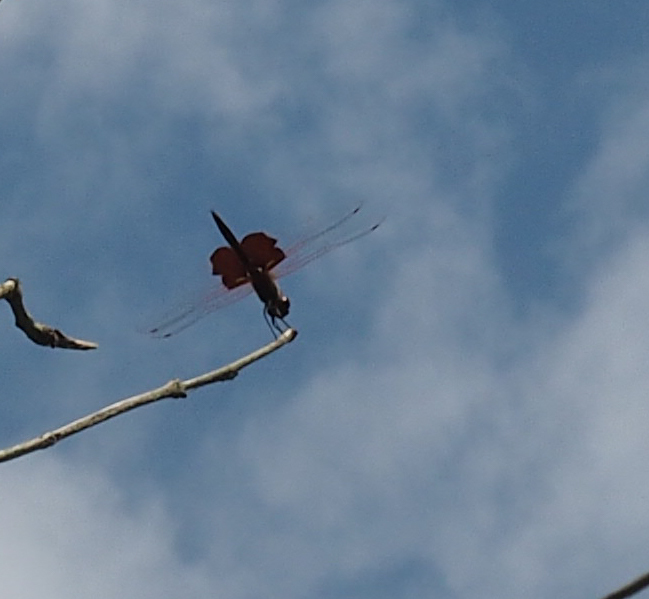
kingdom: Animalia
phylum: Arthropoda
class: Insecta
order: Odonata
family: Libellulidae
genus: Tramea
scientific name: Tramea carolina
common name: Carolina saddlebags
